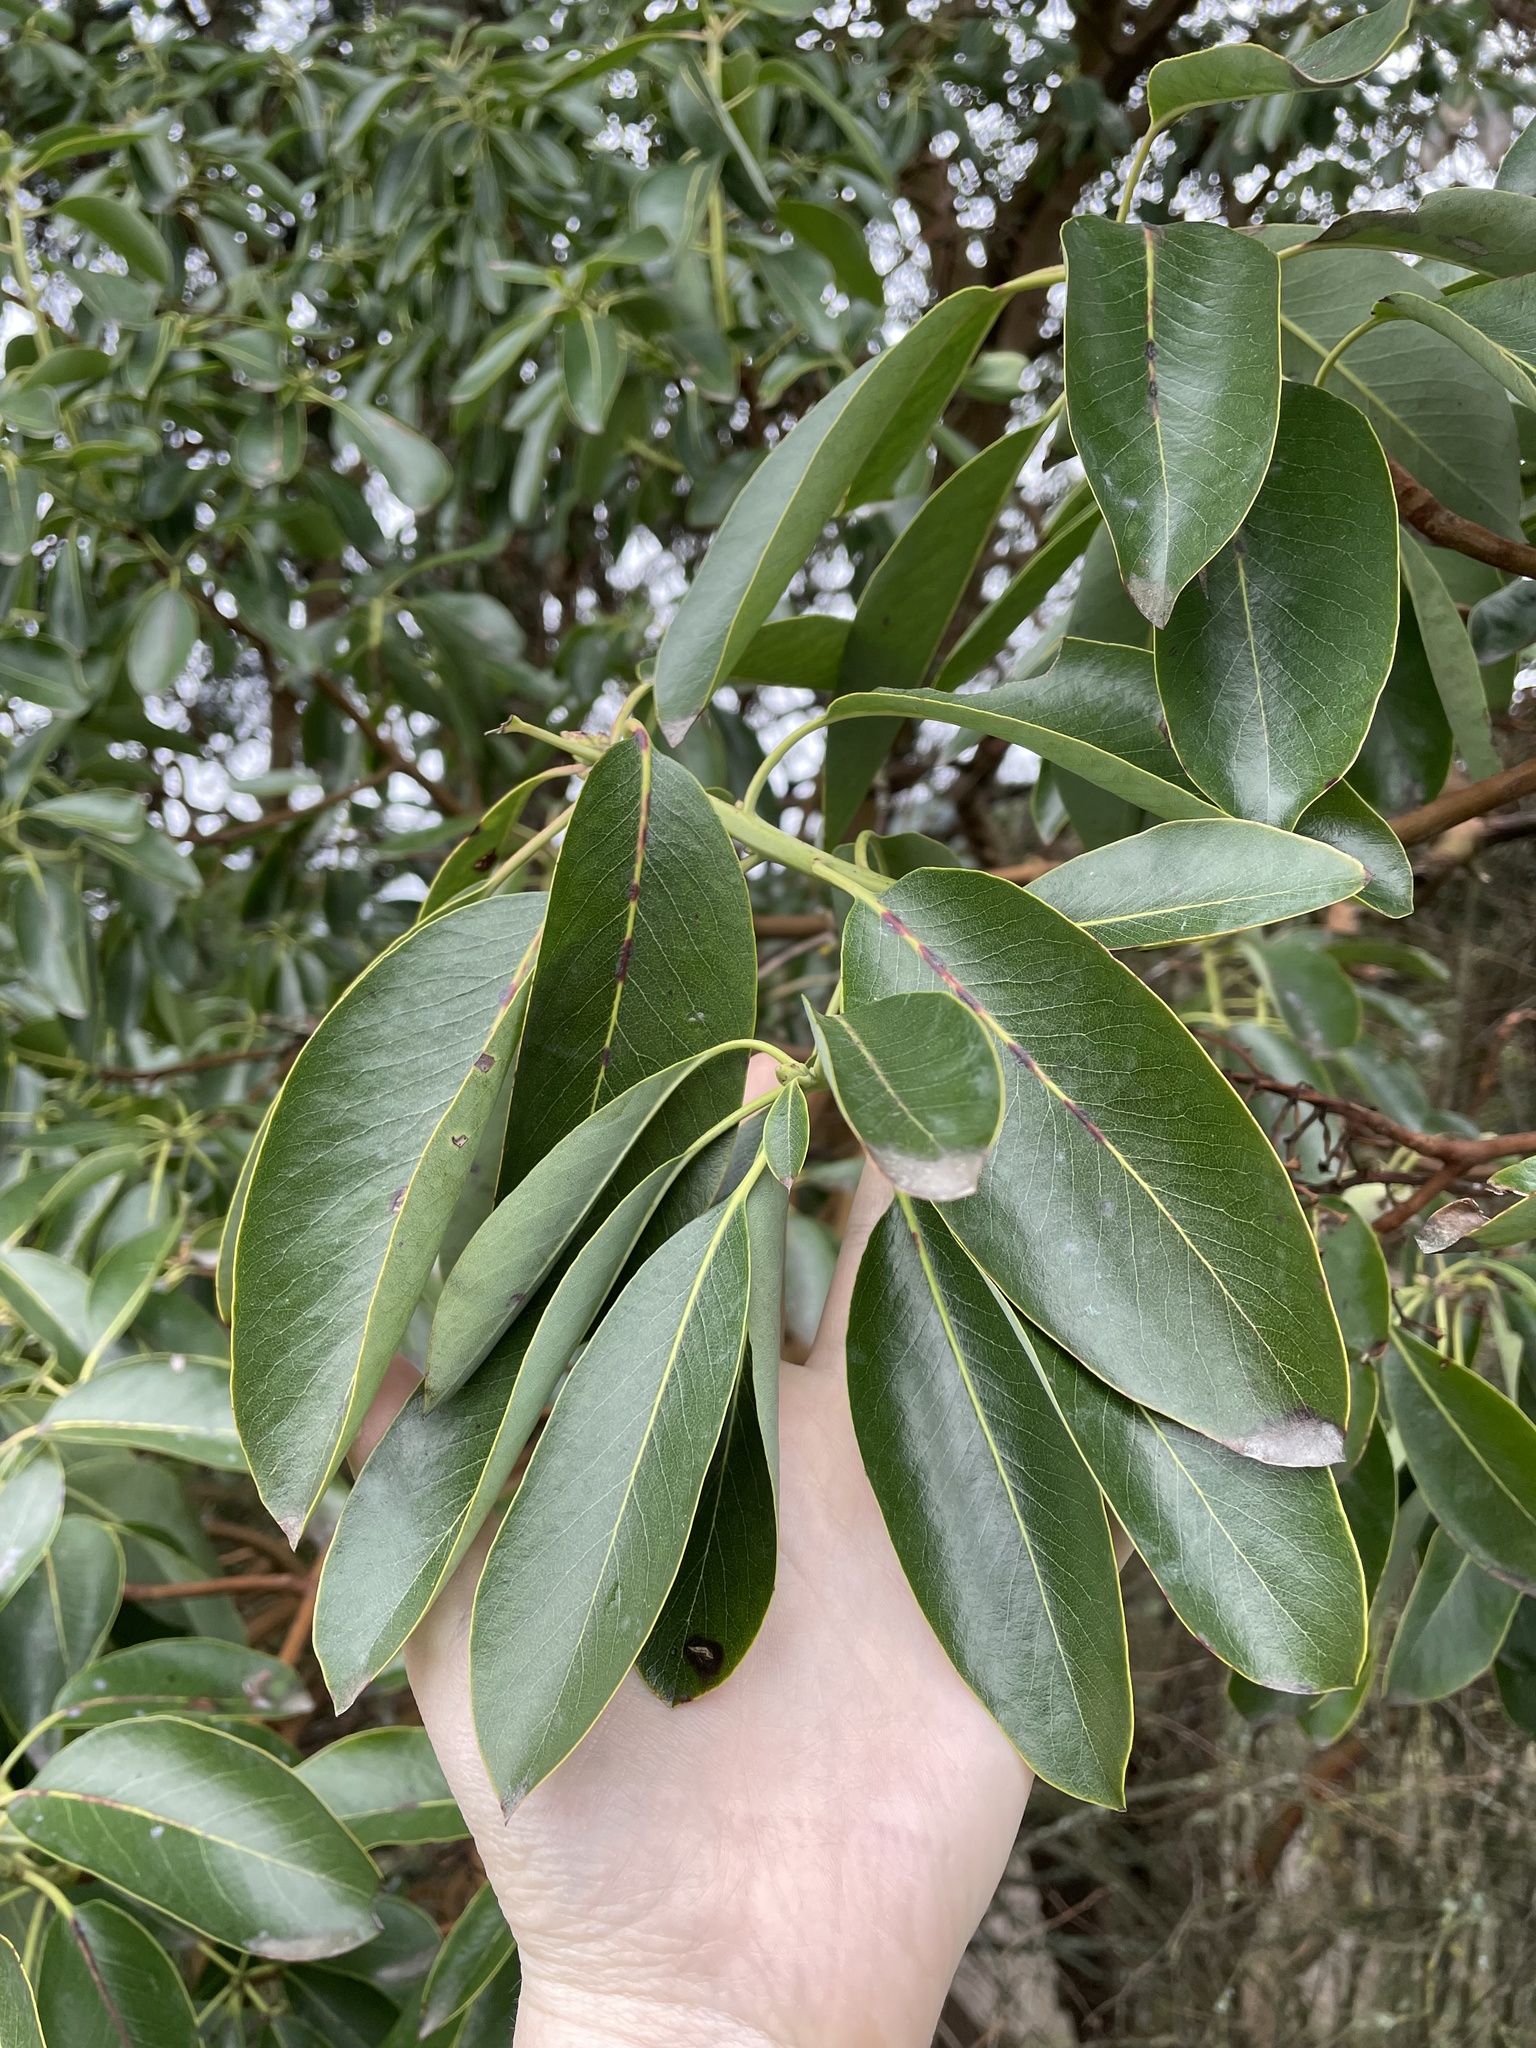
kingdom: Plantae
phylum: Tracheophyta
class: Magnoliopsida
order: Ericales
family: Ericaceae
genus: Arbutus
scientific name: Arbutus menziesii
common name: Pacific madrone
